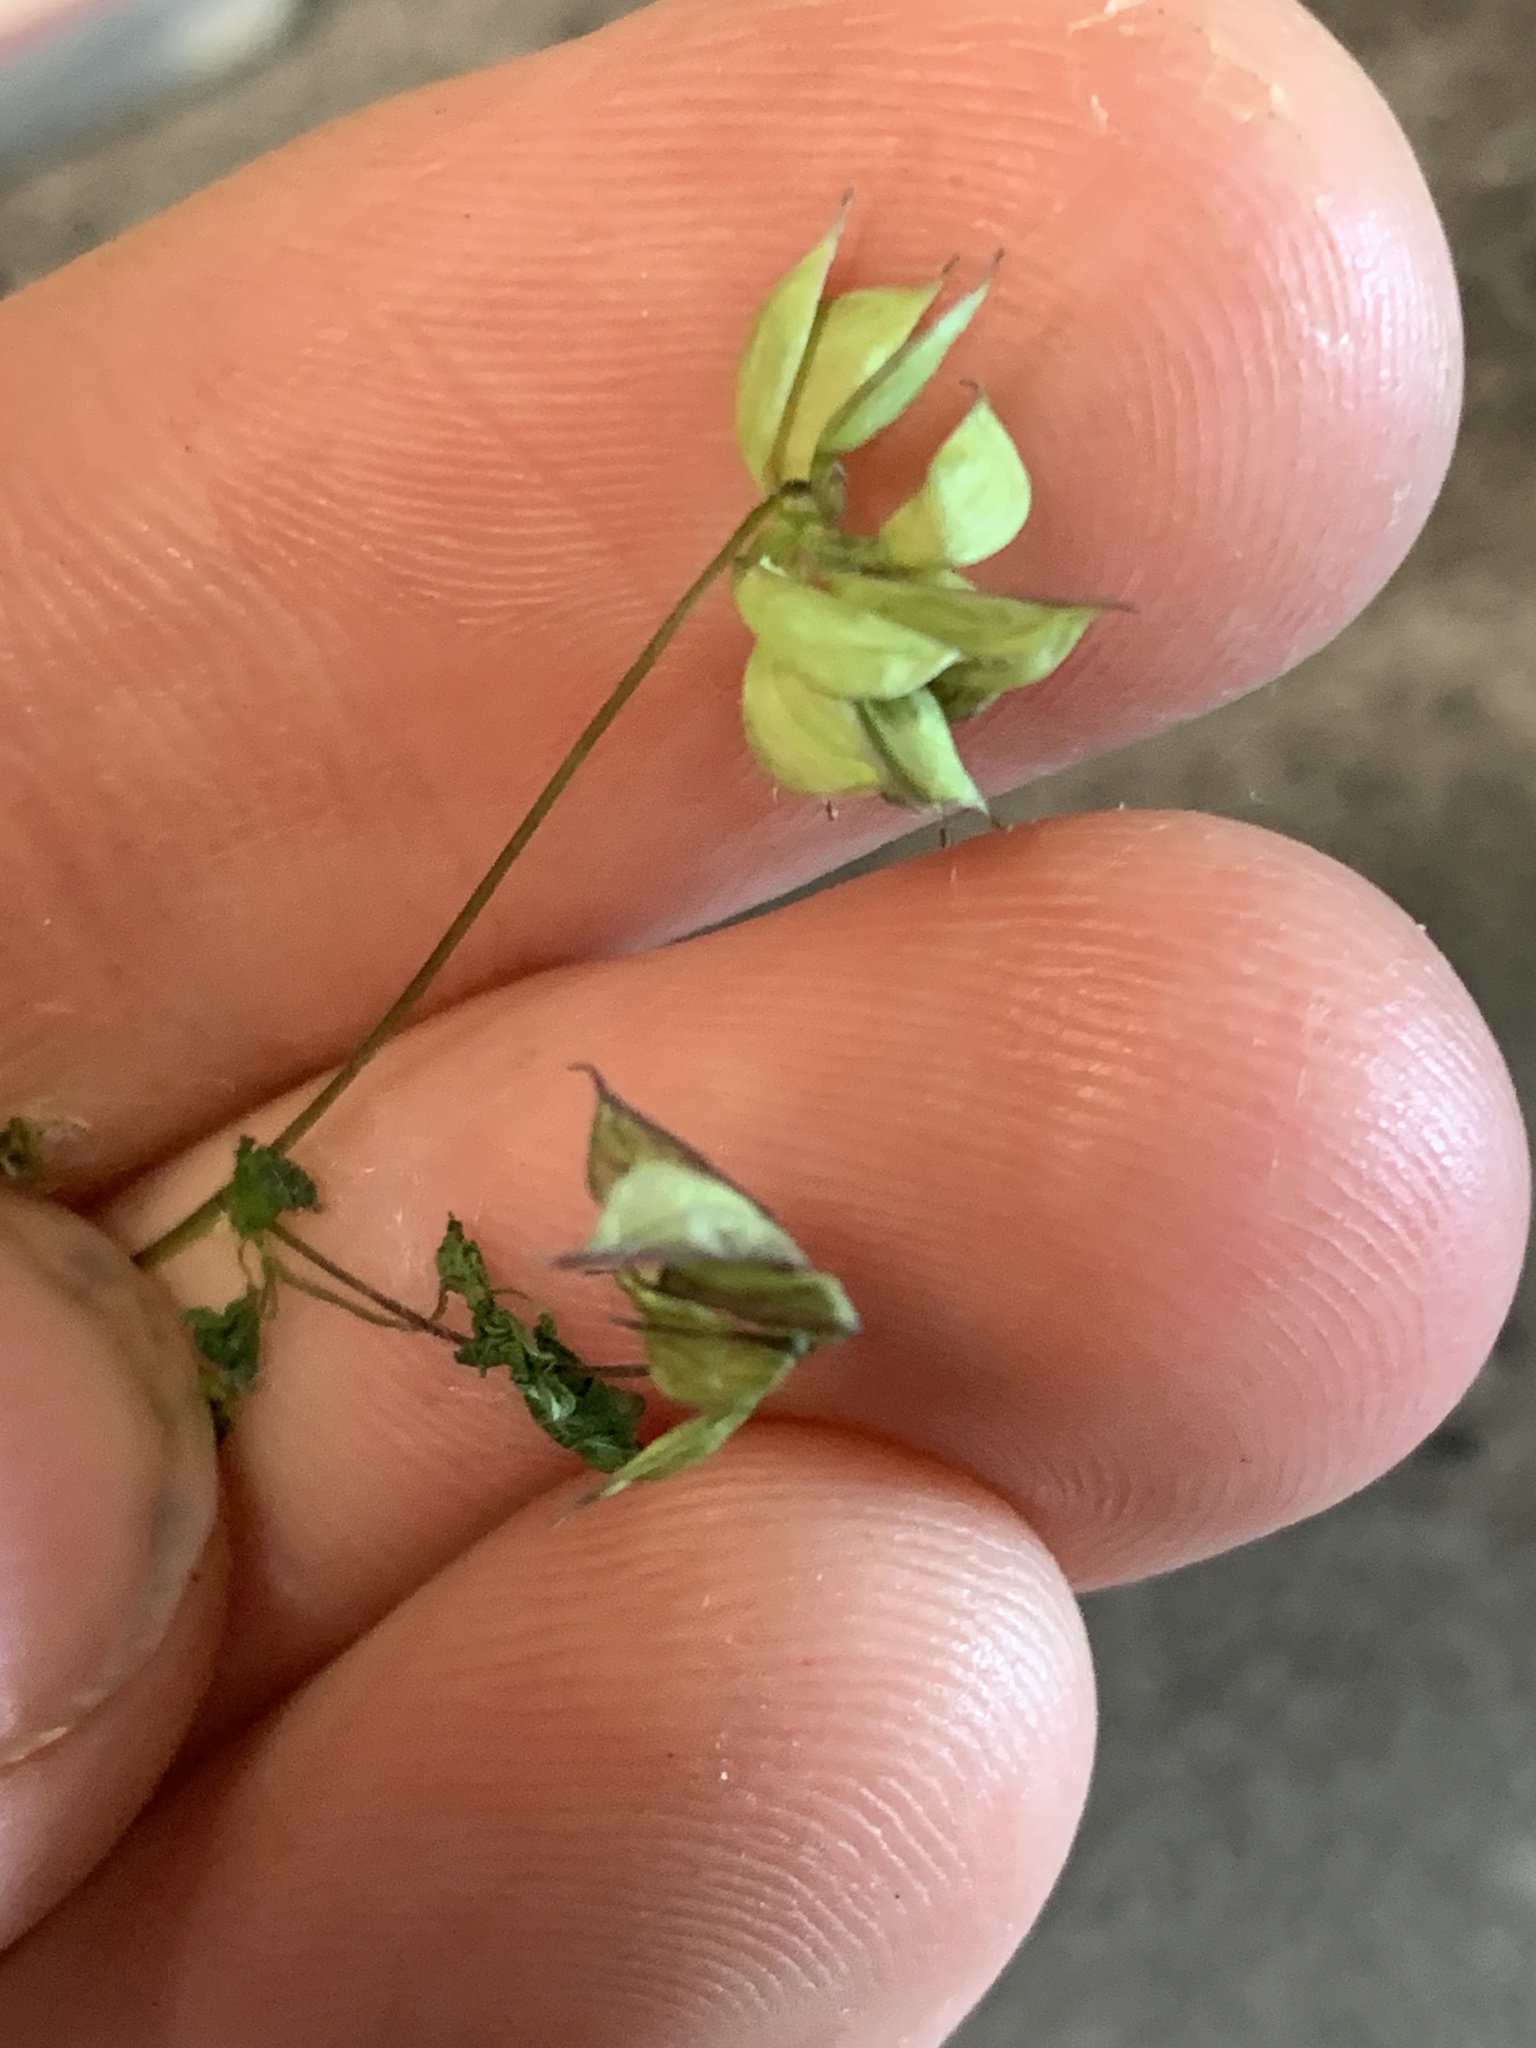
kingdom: Plantae
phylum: Tracheophyta
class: Magnoliopsida
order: Ranunculales
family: Ranunculaceae
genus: Thalictrum
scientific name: Thalictrum sparsiflorum
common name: Mountain meadow-rue
